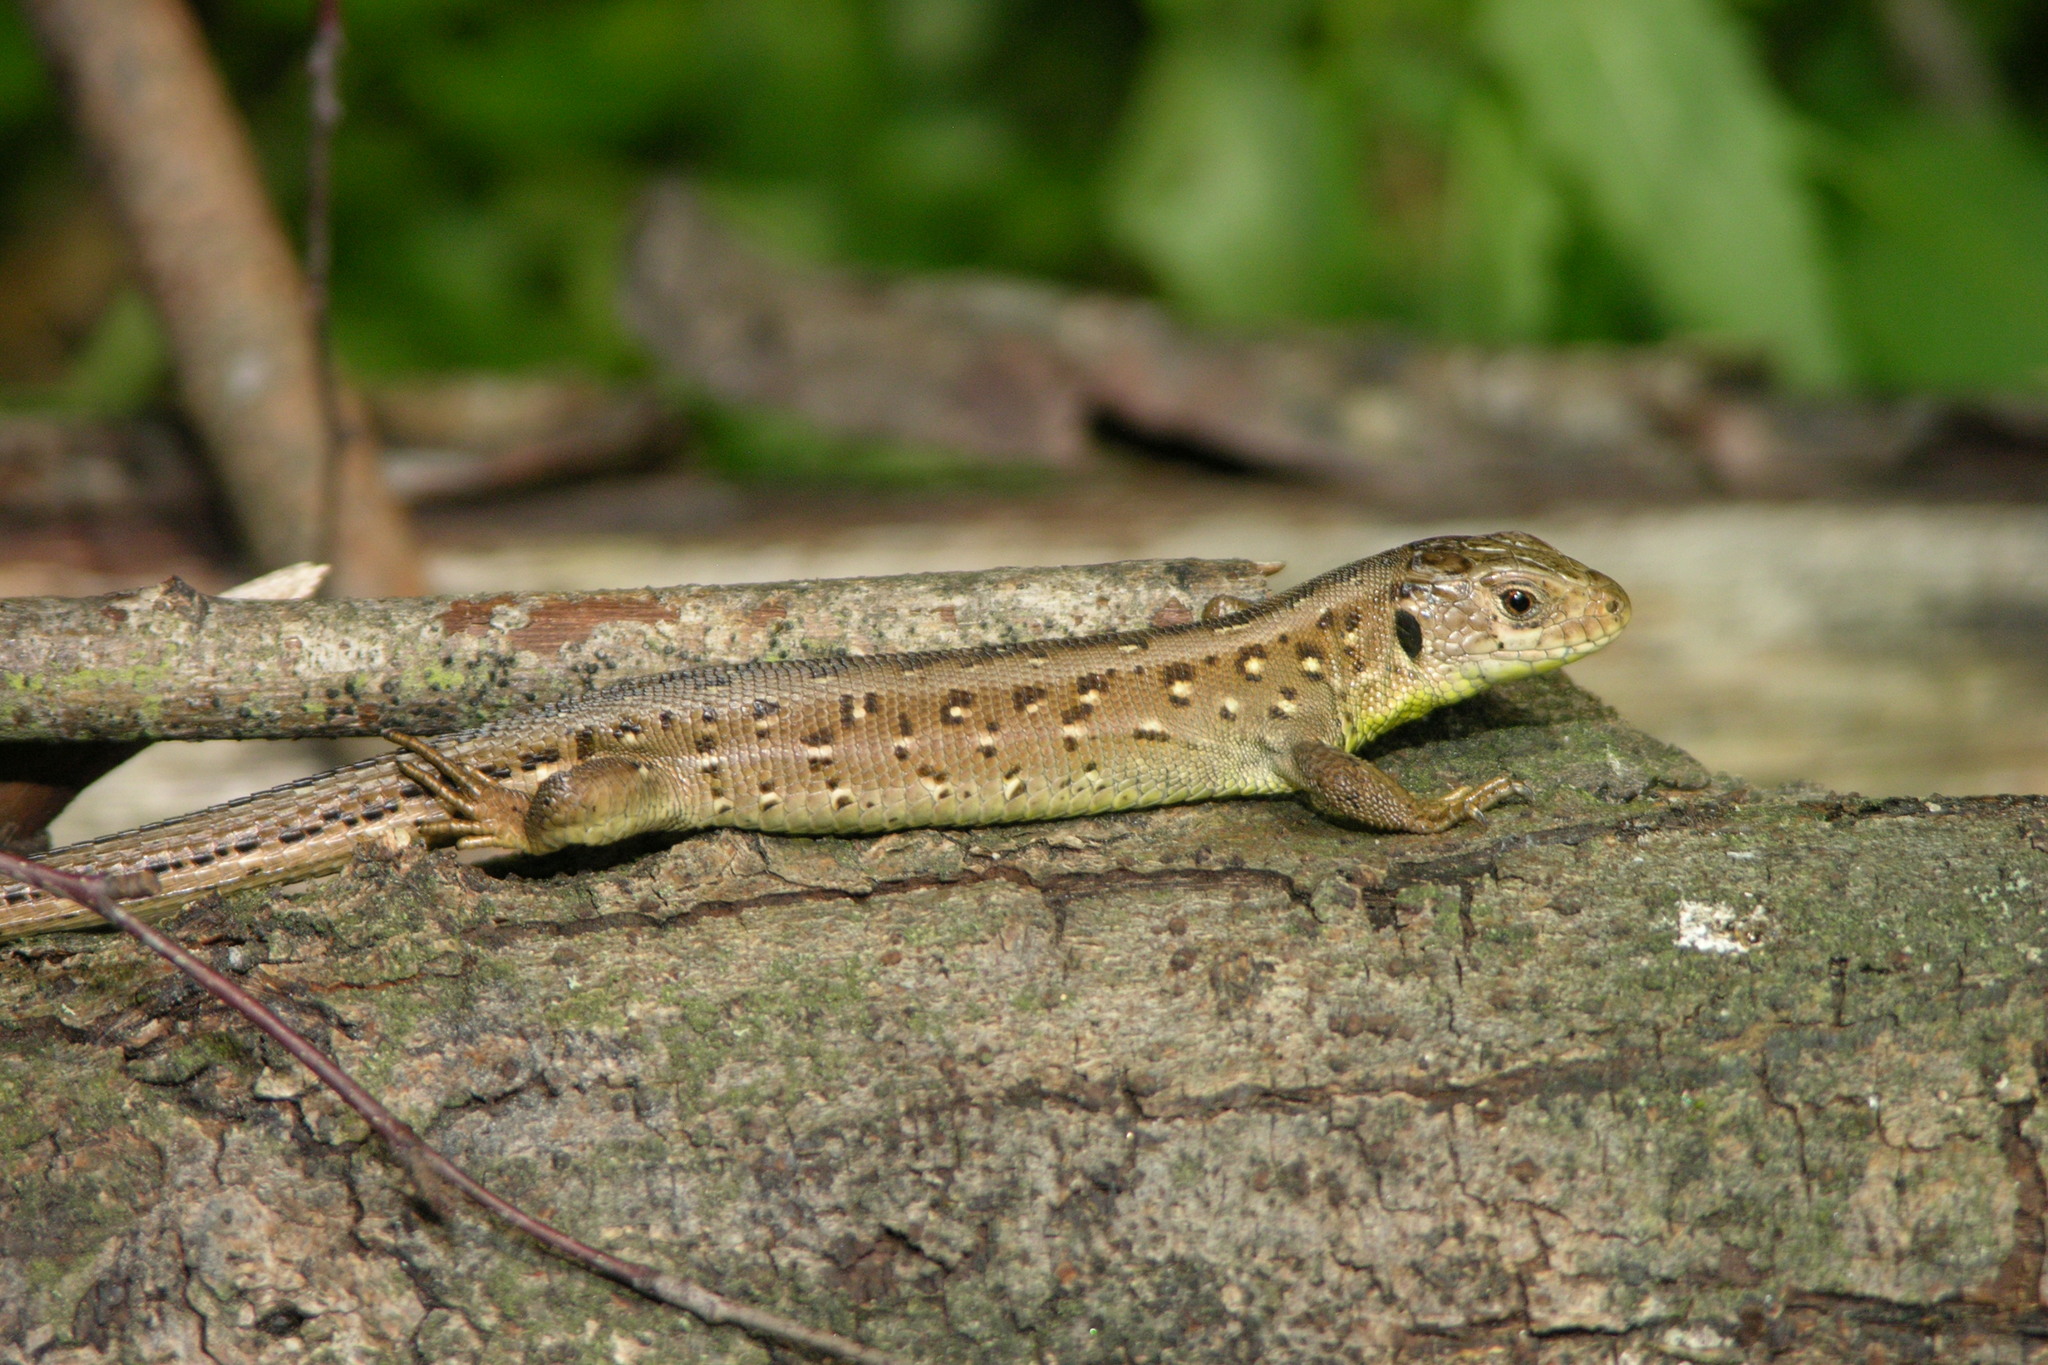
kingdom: Animalia
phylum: Chordata
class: Squamata
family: Lacertidae
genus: Lacerta
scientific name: Lacerta agilis
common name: Sand lizard
